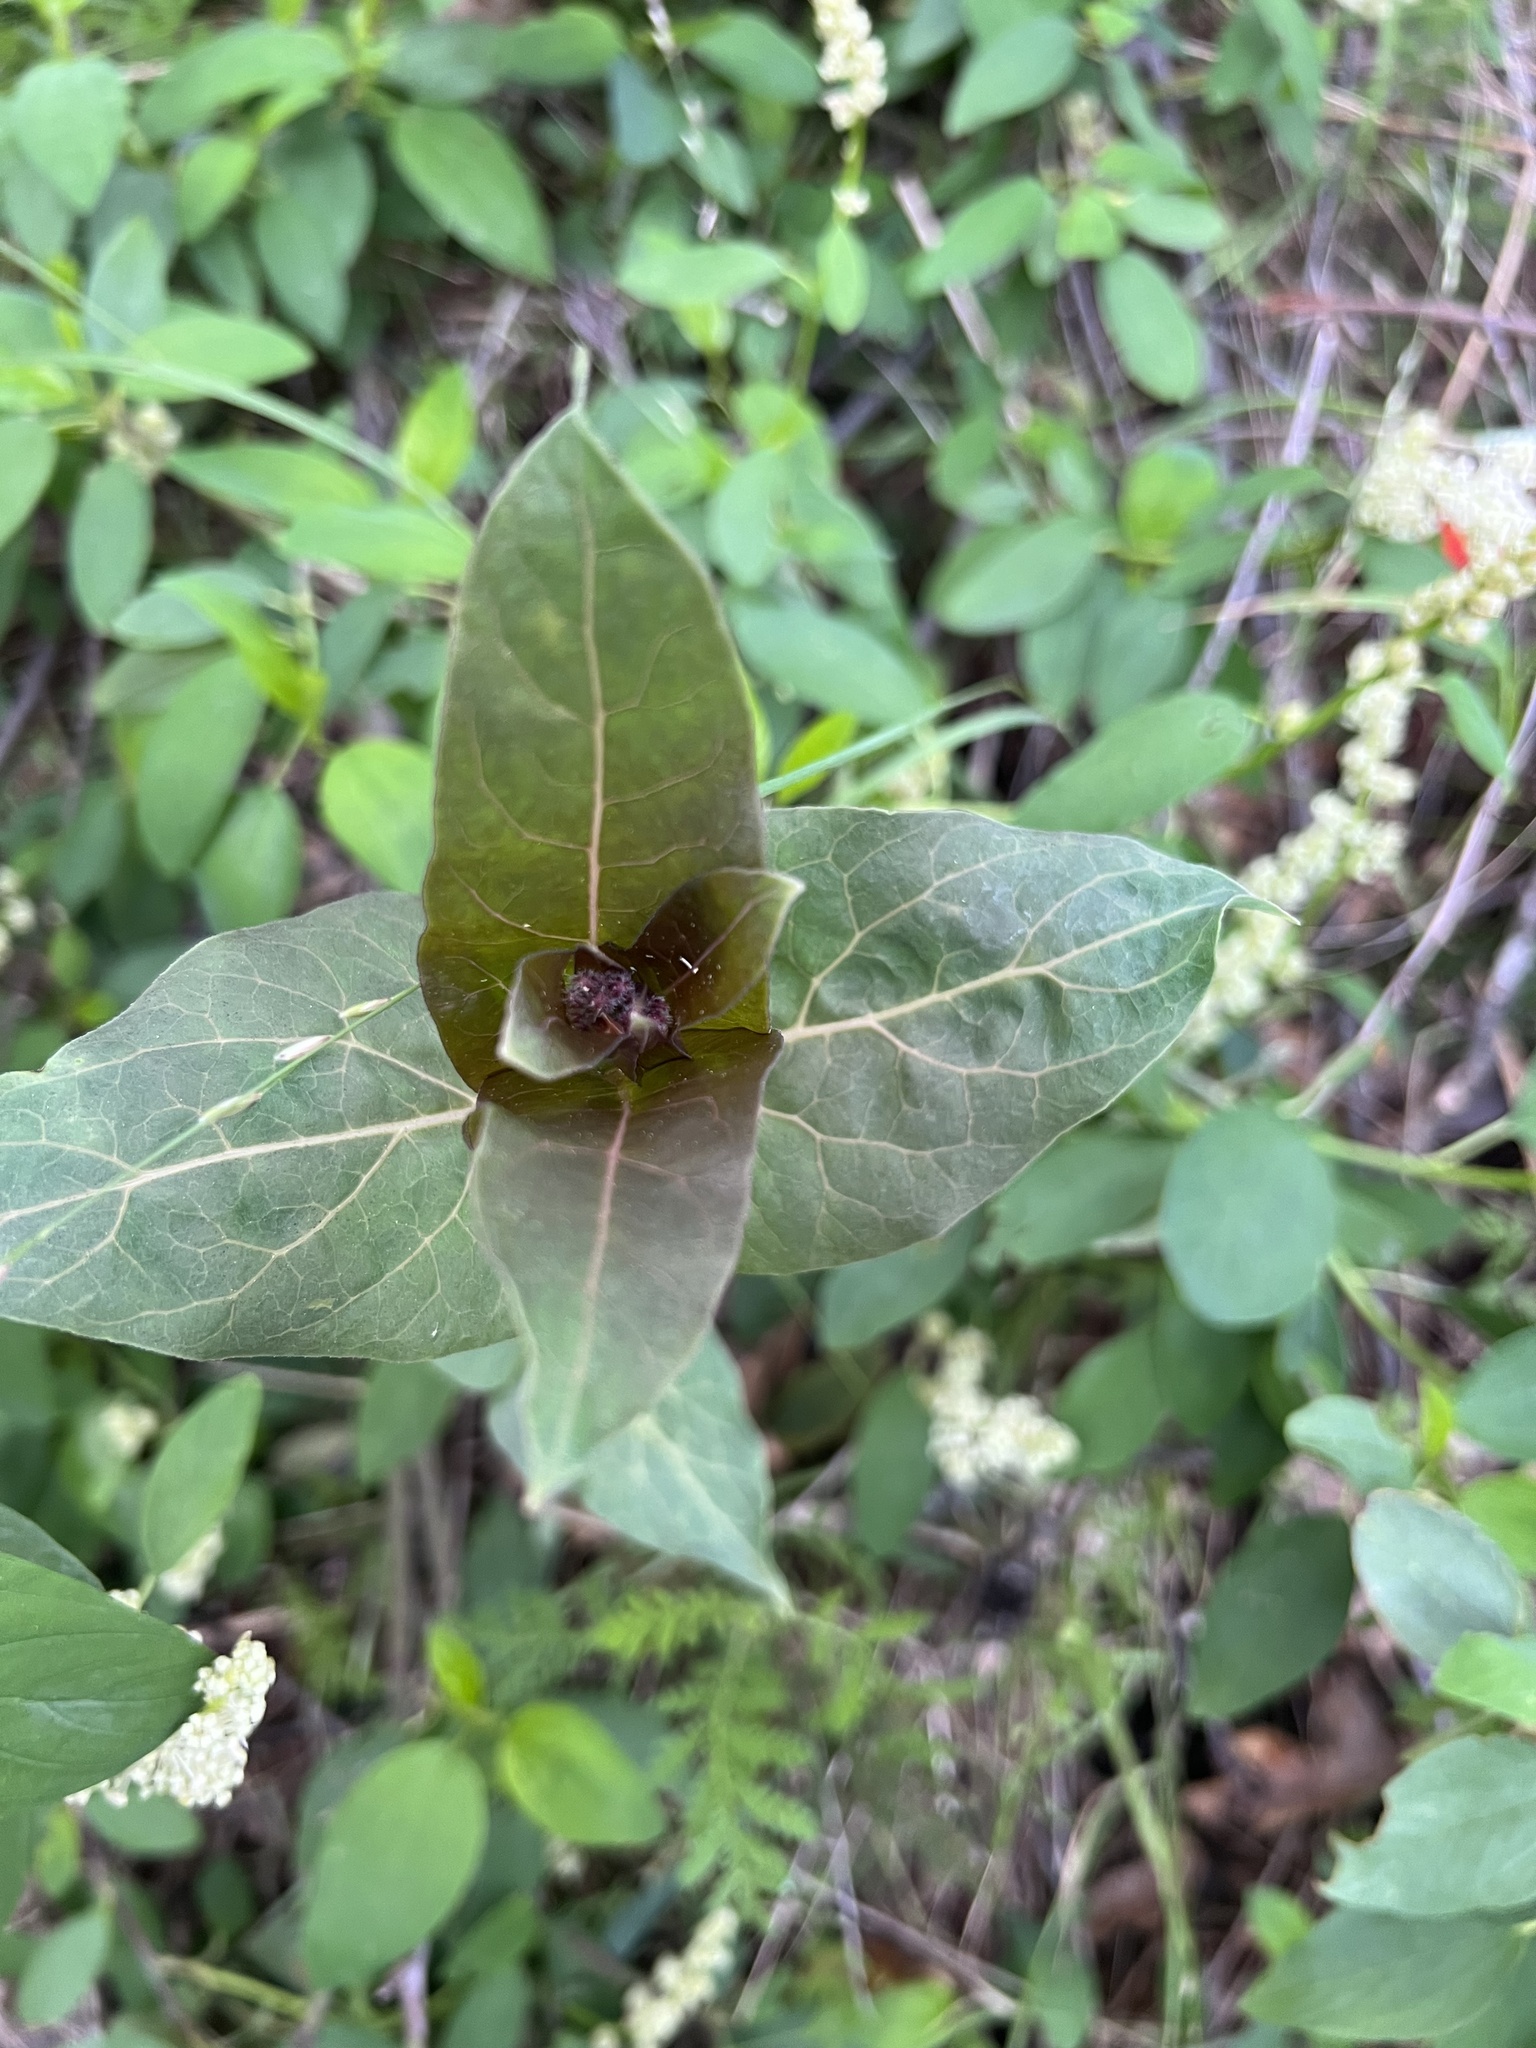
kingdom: Plantae
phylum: Tracheophyta
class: Magnoliopsida
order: Gentianales
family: Apocynaceae
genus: Asclepias
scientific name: Asclepias cordifolia
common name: Purple milkweed
